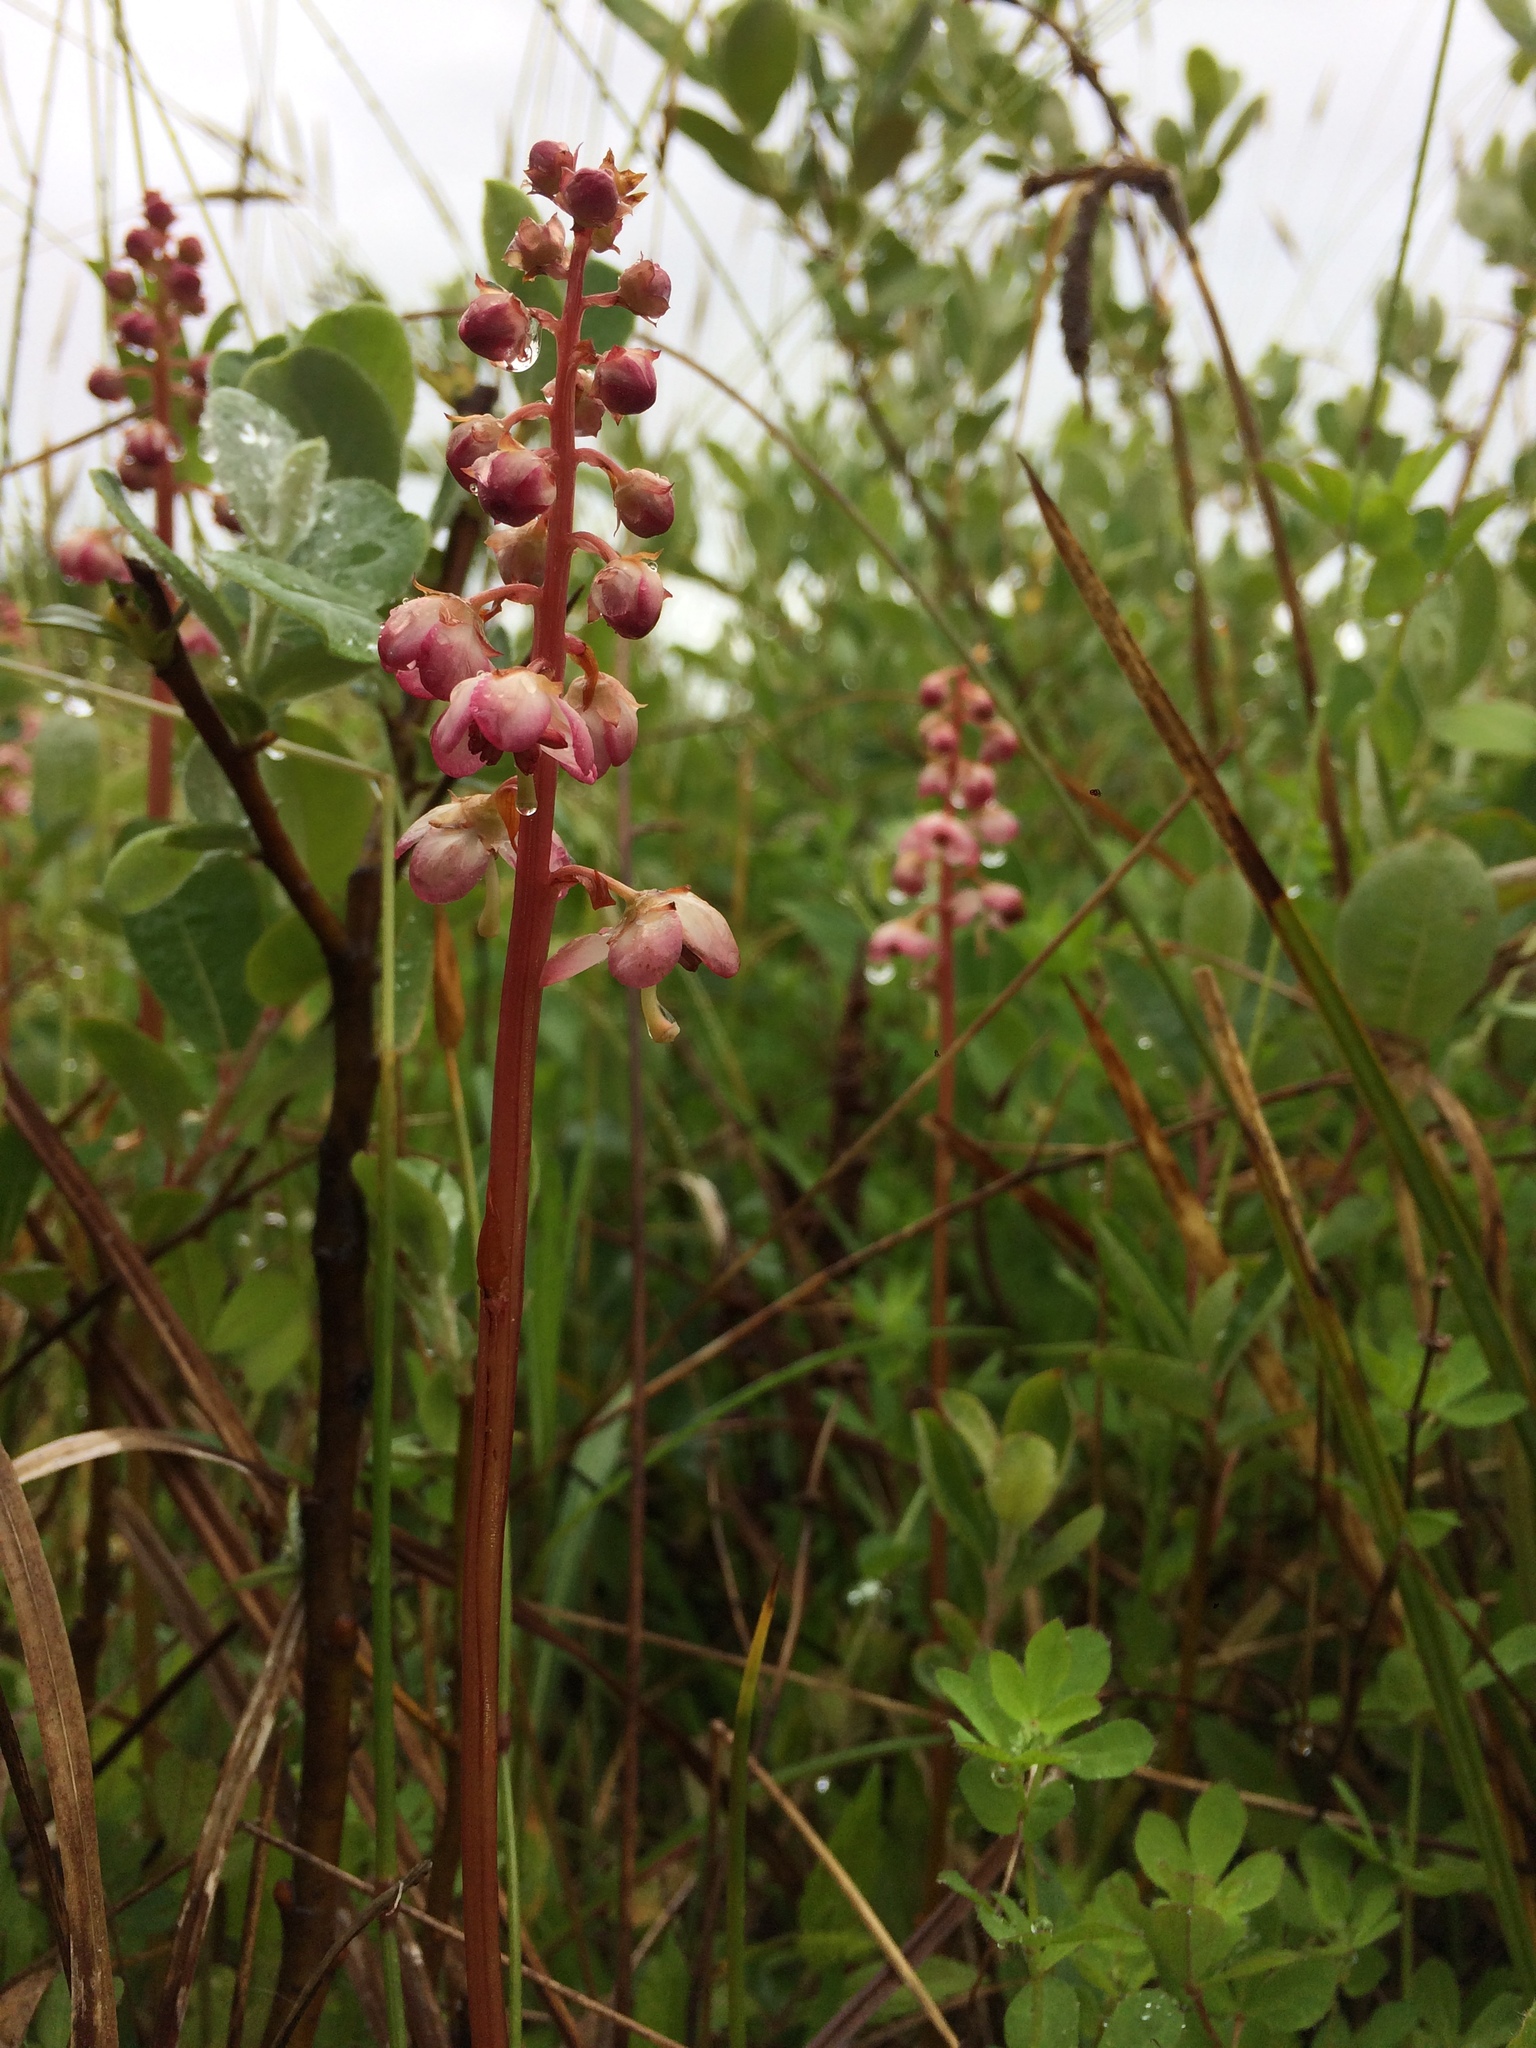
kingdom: Plantae
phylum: Tracheophyta
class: Magnoliopsida
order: Ericales
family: Ericaceae
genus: Pyrola
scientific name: Pyrola asarifolia
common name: Bog wintergreen
